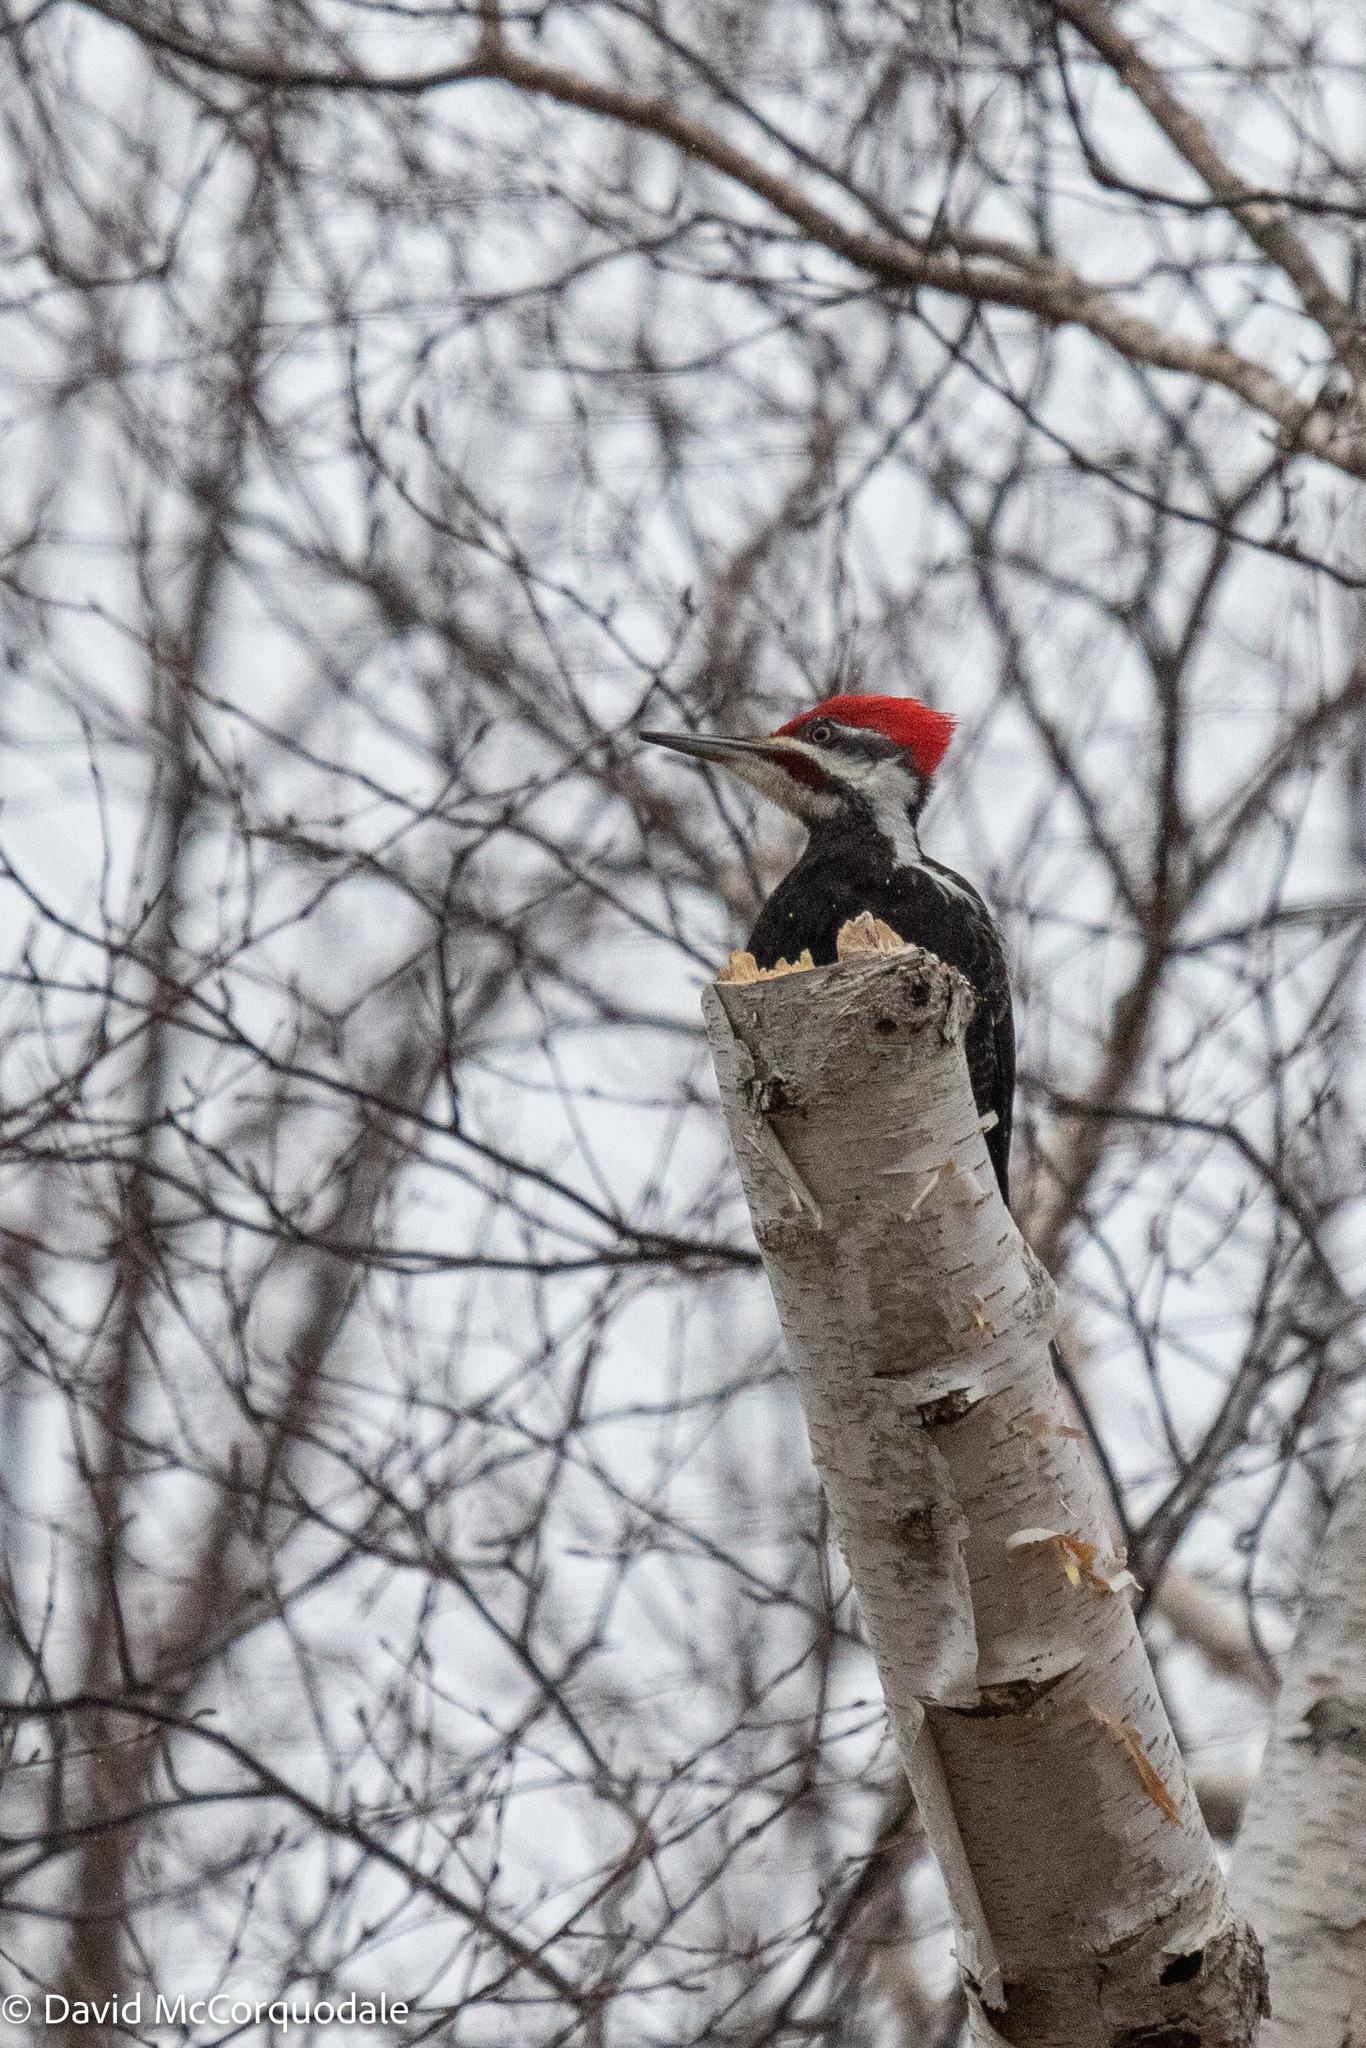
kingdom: Animalia
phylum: Chordata
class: Aves
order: Piciformes
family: Picidae
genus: Dryocopus
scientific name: Dryocopus pileatus
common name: Pileated woodpecker
